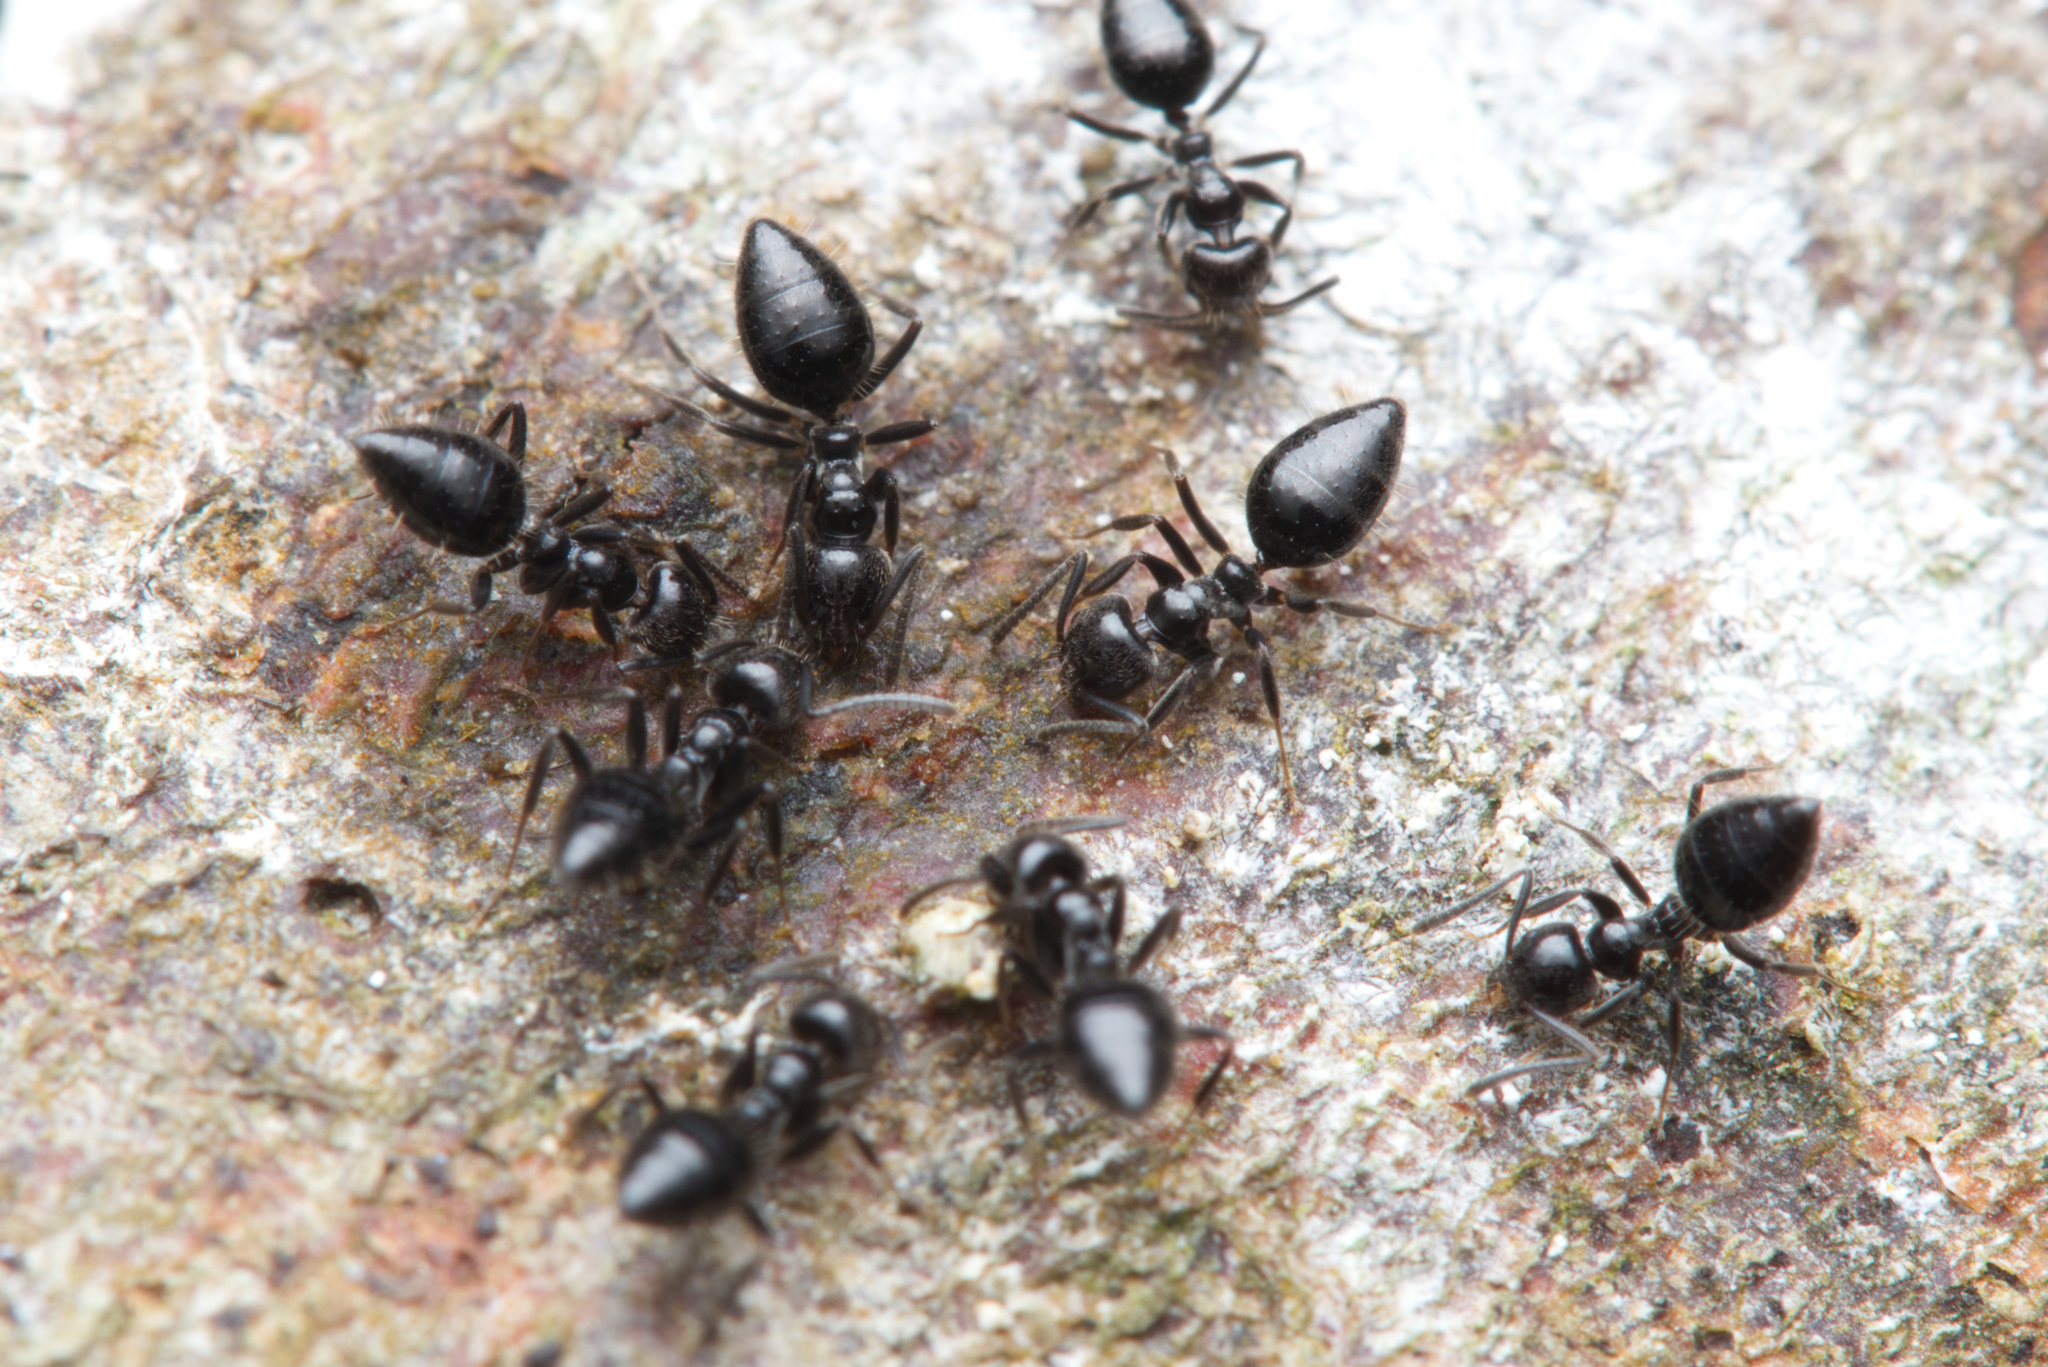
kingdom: Animalia
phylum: Arthropoda
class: Insecta
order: Hymenoptera
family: Formicidae
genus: Technomyrmex
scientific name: Technomyrmex sophiae
